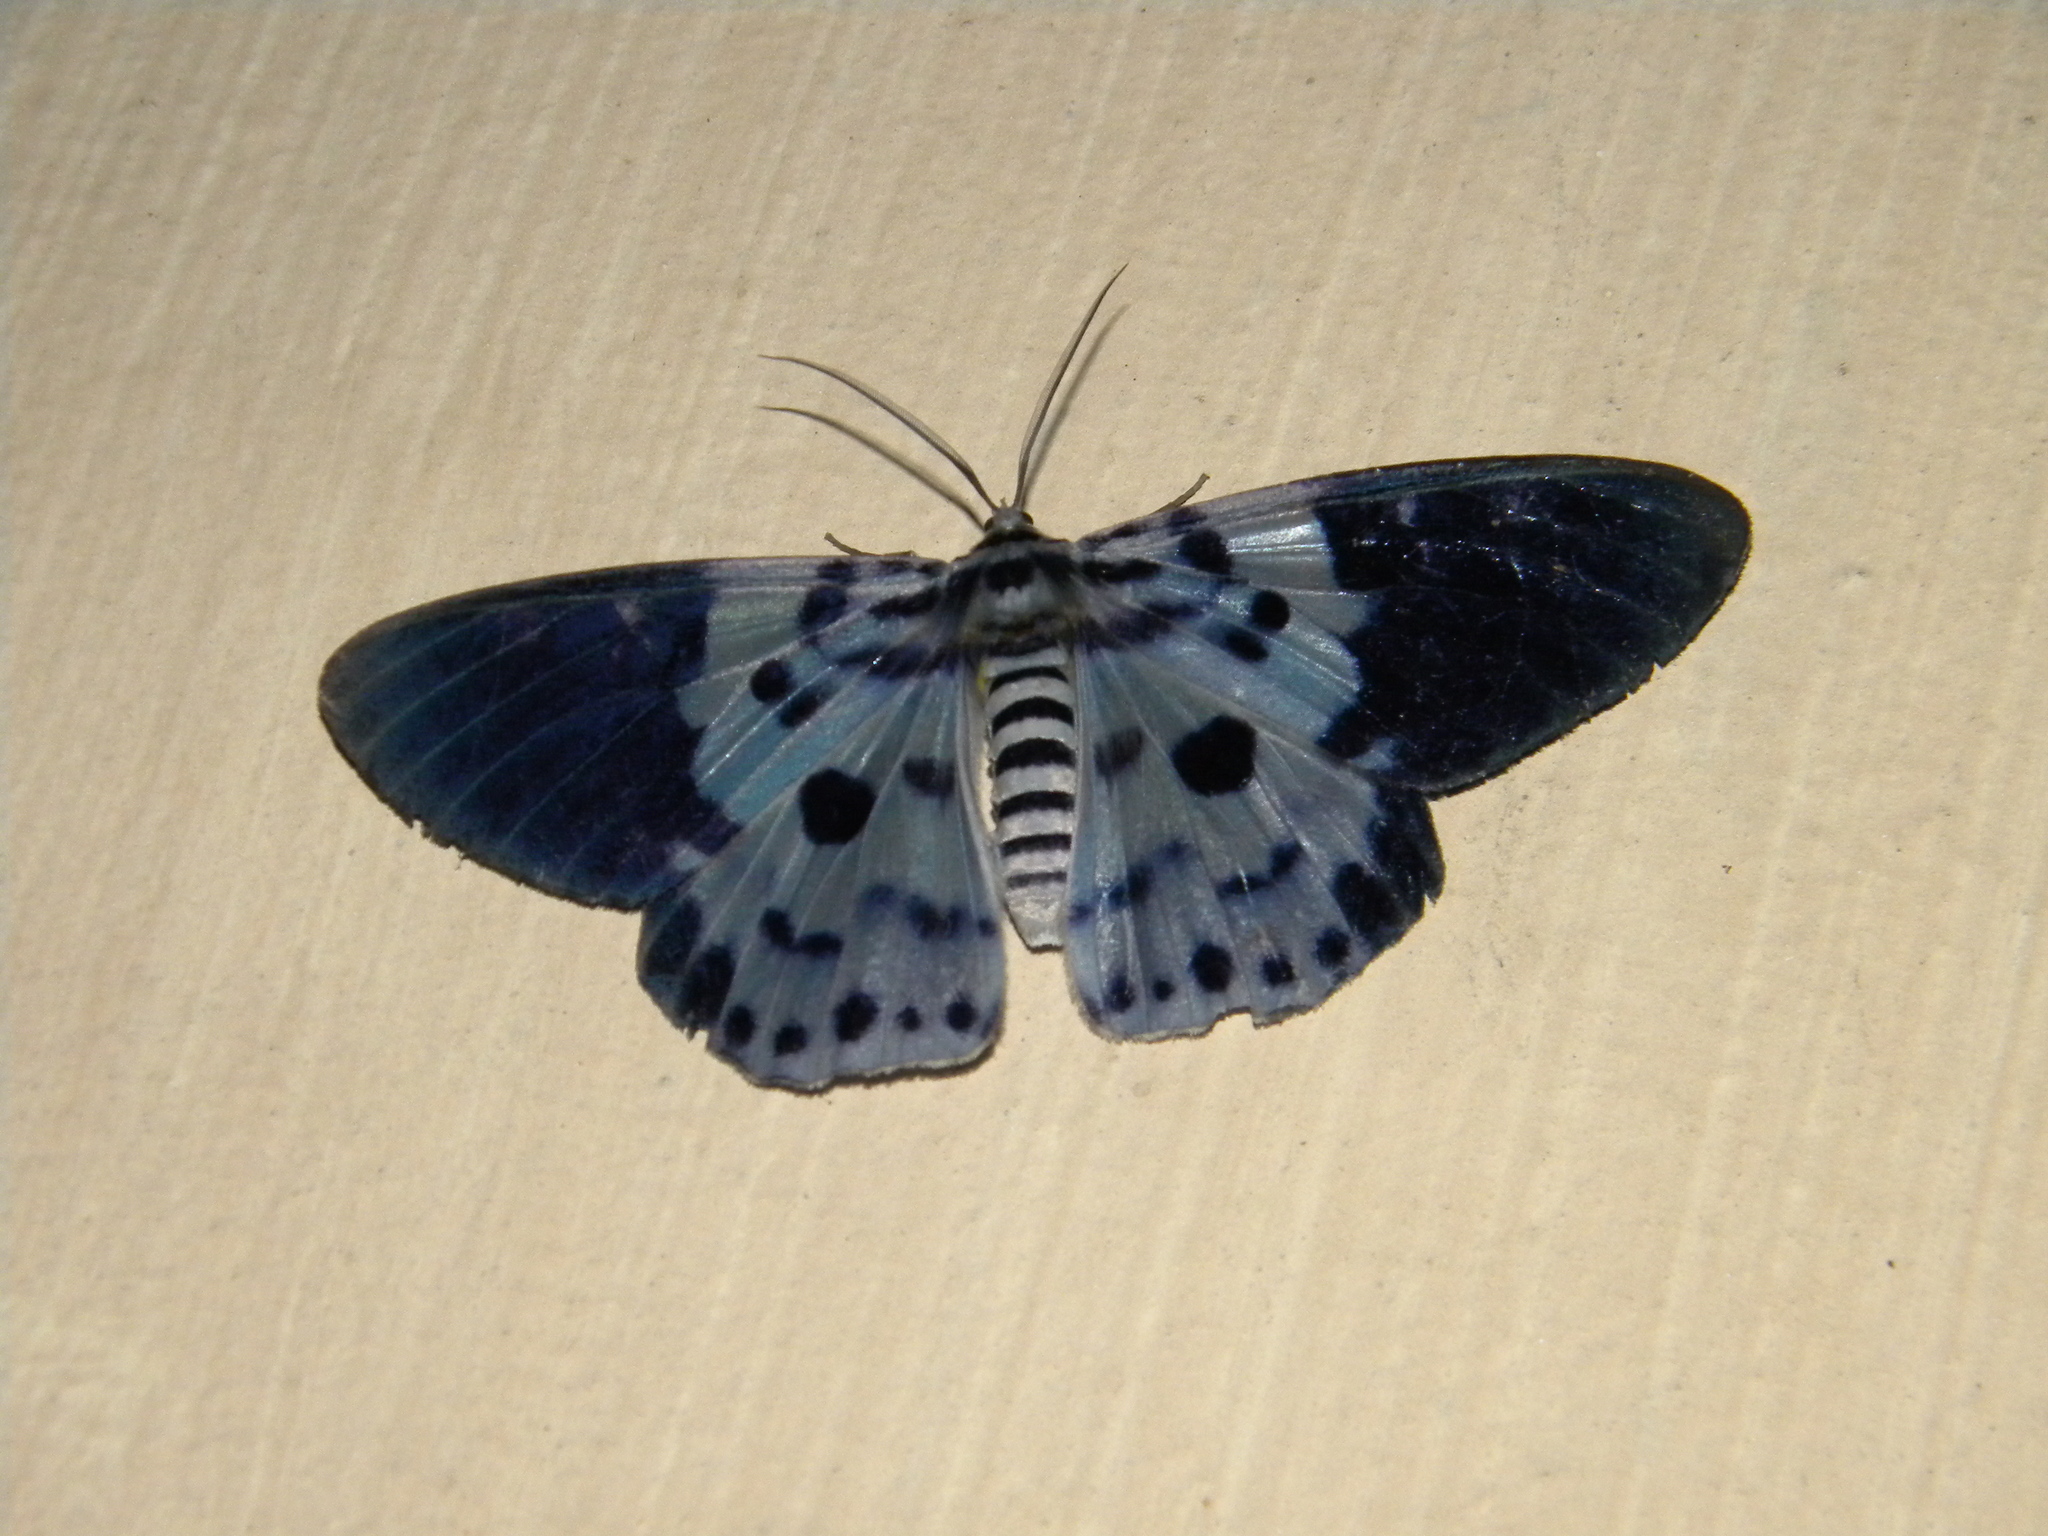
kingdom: Animalia
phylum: Arthropoda
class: Insecta
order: Lepidoptera
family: Geometridae
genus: Dysphania
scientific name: Dysphania percota
